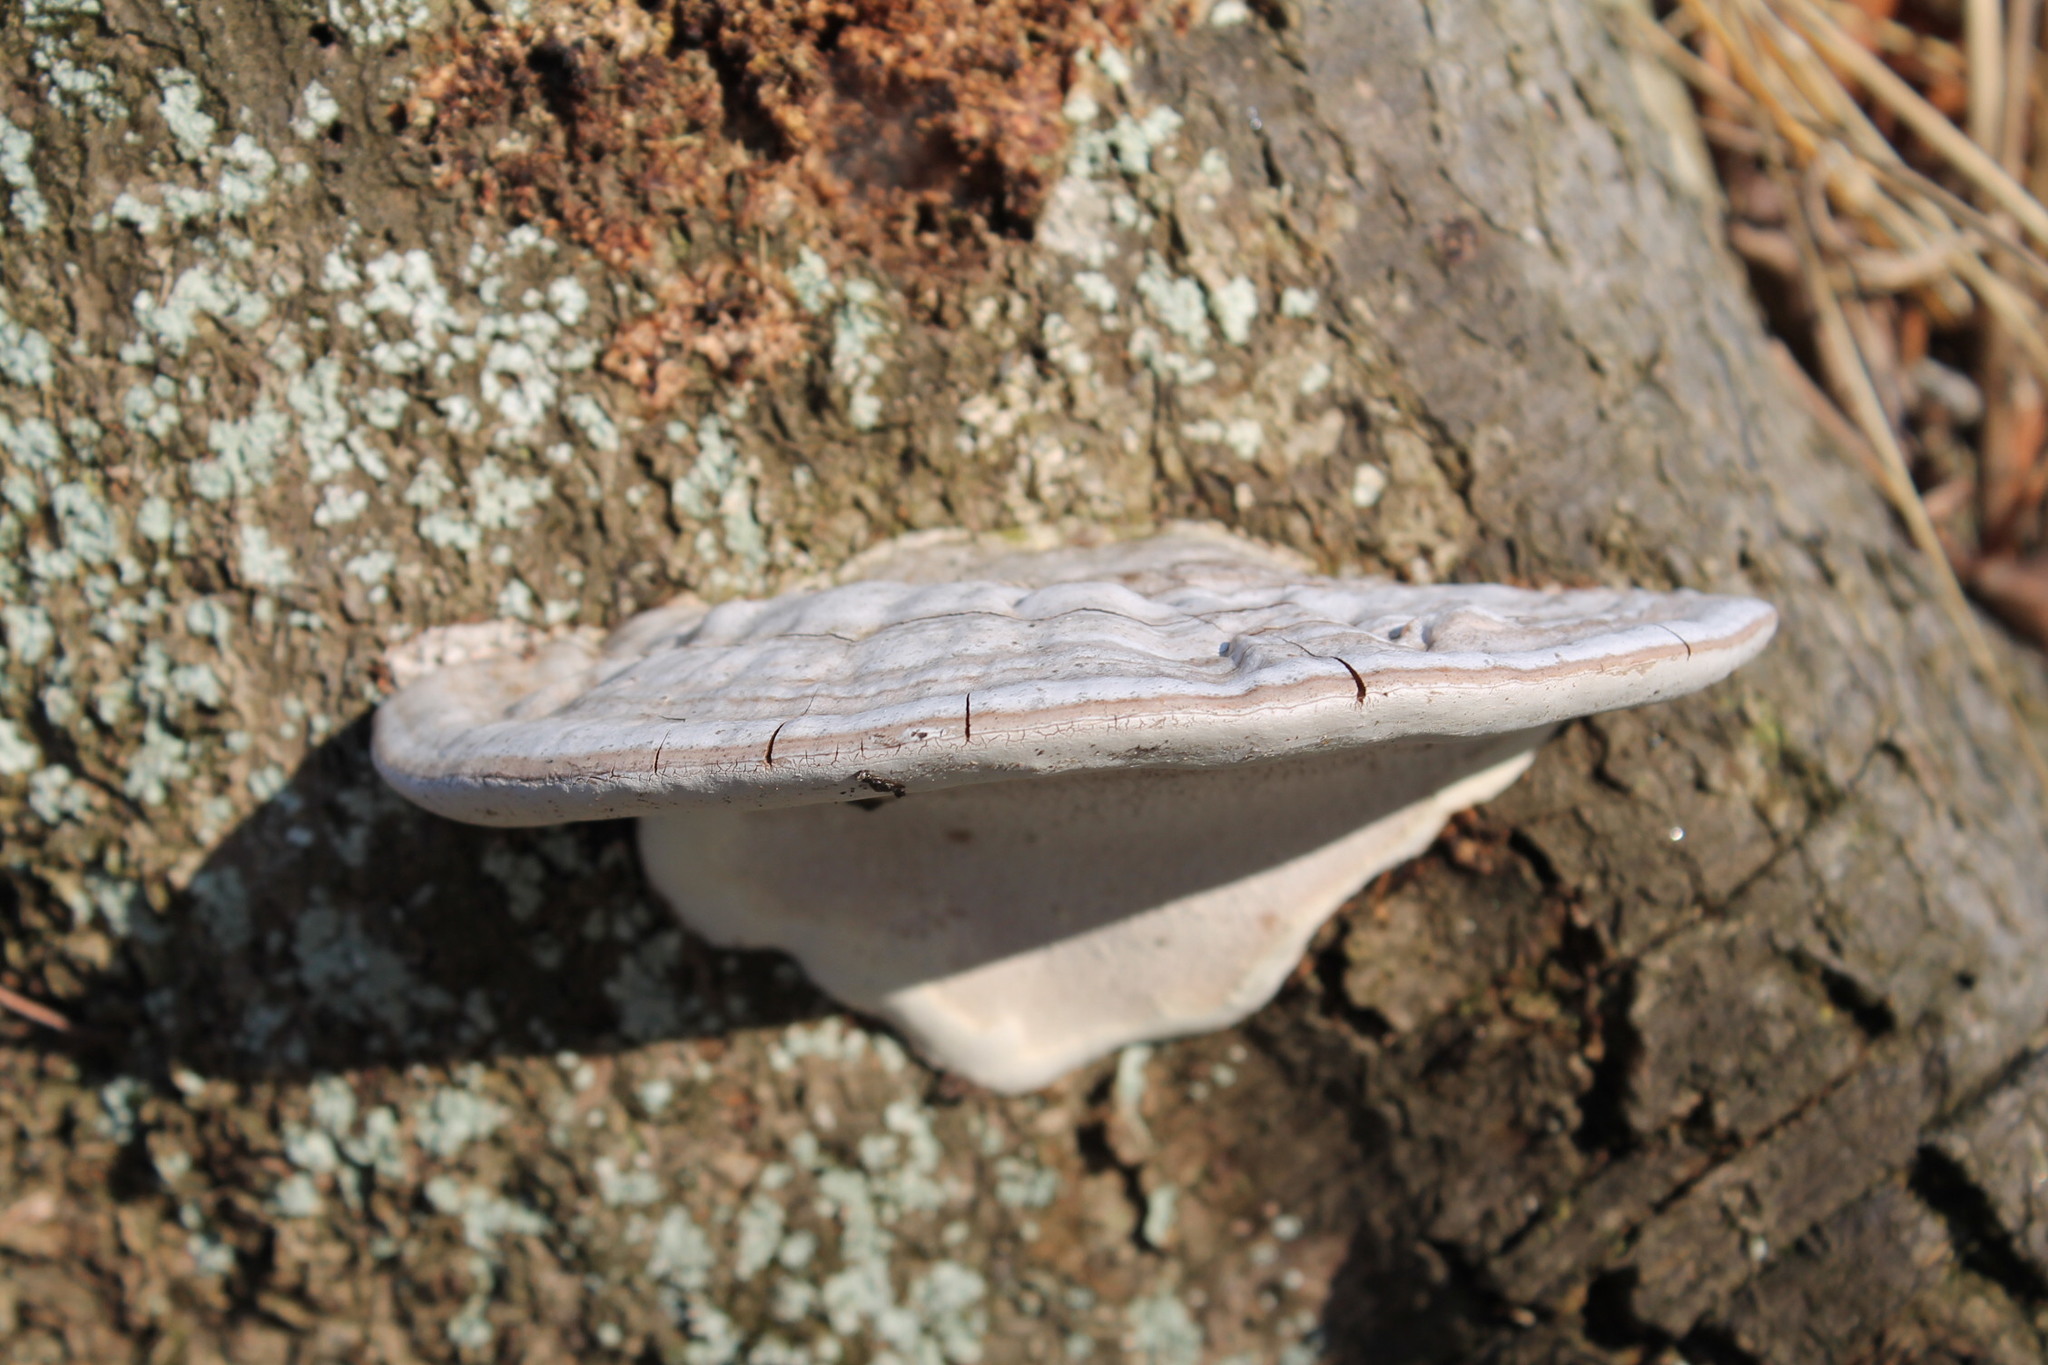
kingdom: Fungi
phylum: Basidiomycota
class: Agaricomycetes
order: Polyporales
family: Polyporaceae
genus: Ganoderma
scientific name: Ganoderma applanatum
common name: Artist's bracket
